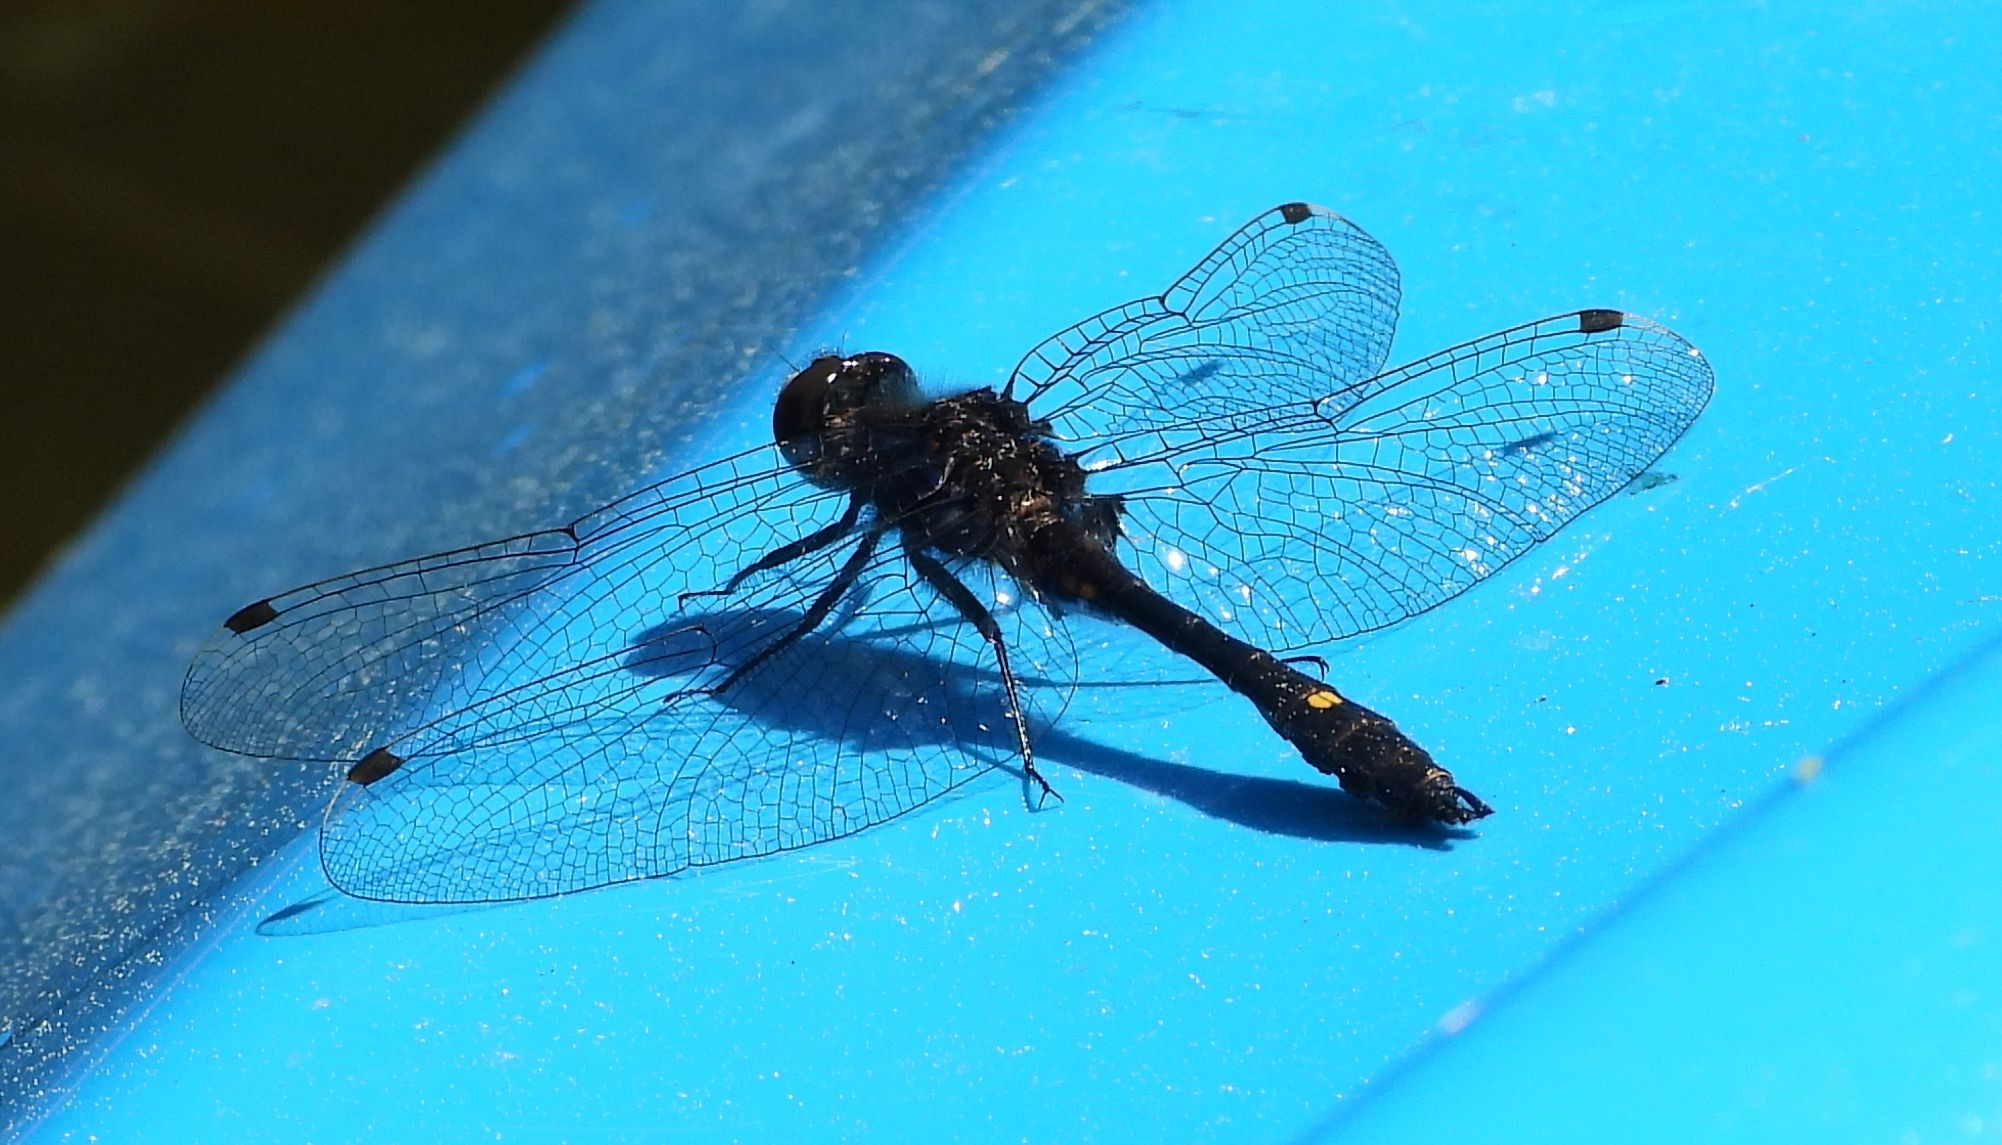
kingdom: Animalia
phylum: Arthropoda
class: Insecta
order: Odonata
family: Libellulidae
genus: Leucorrhinia
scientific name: Leucorrhinia intacta
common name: Dot-tailed whiteface
